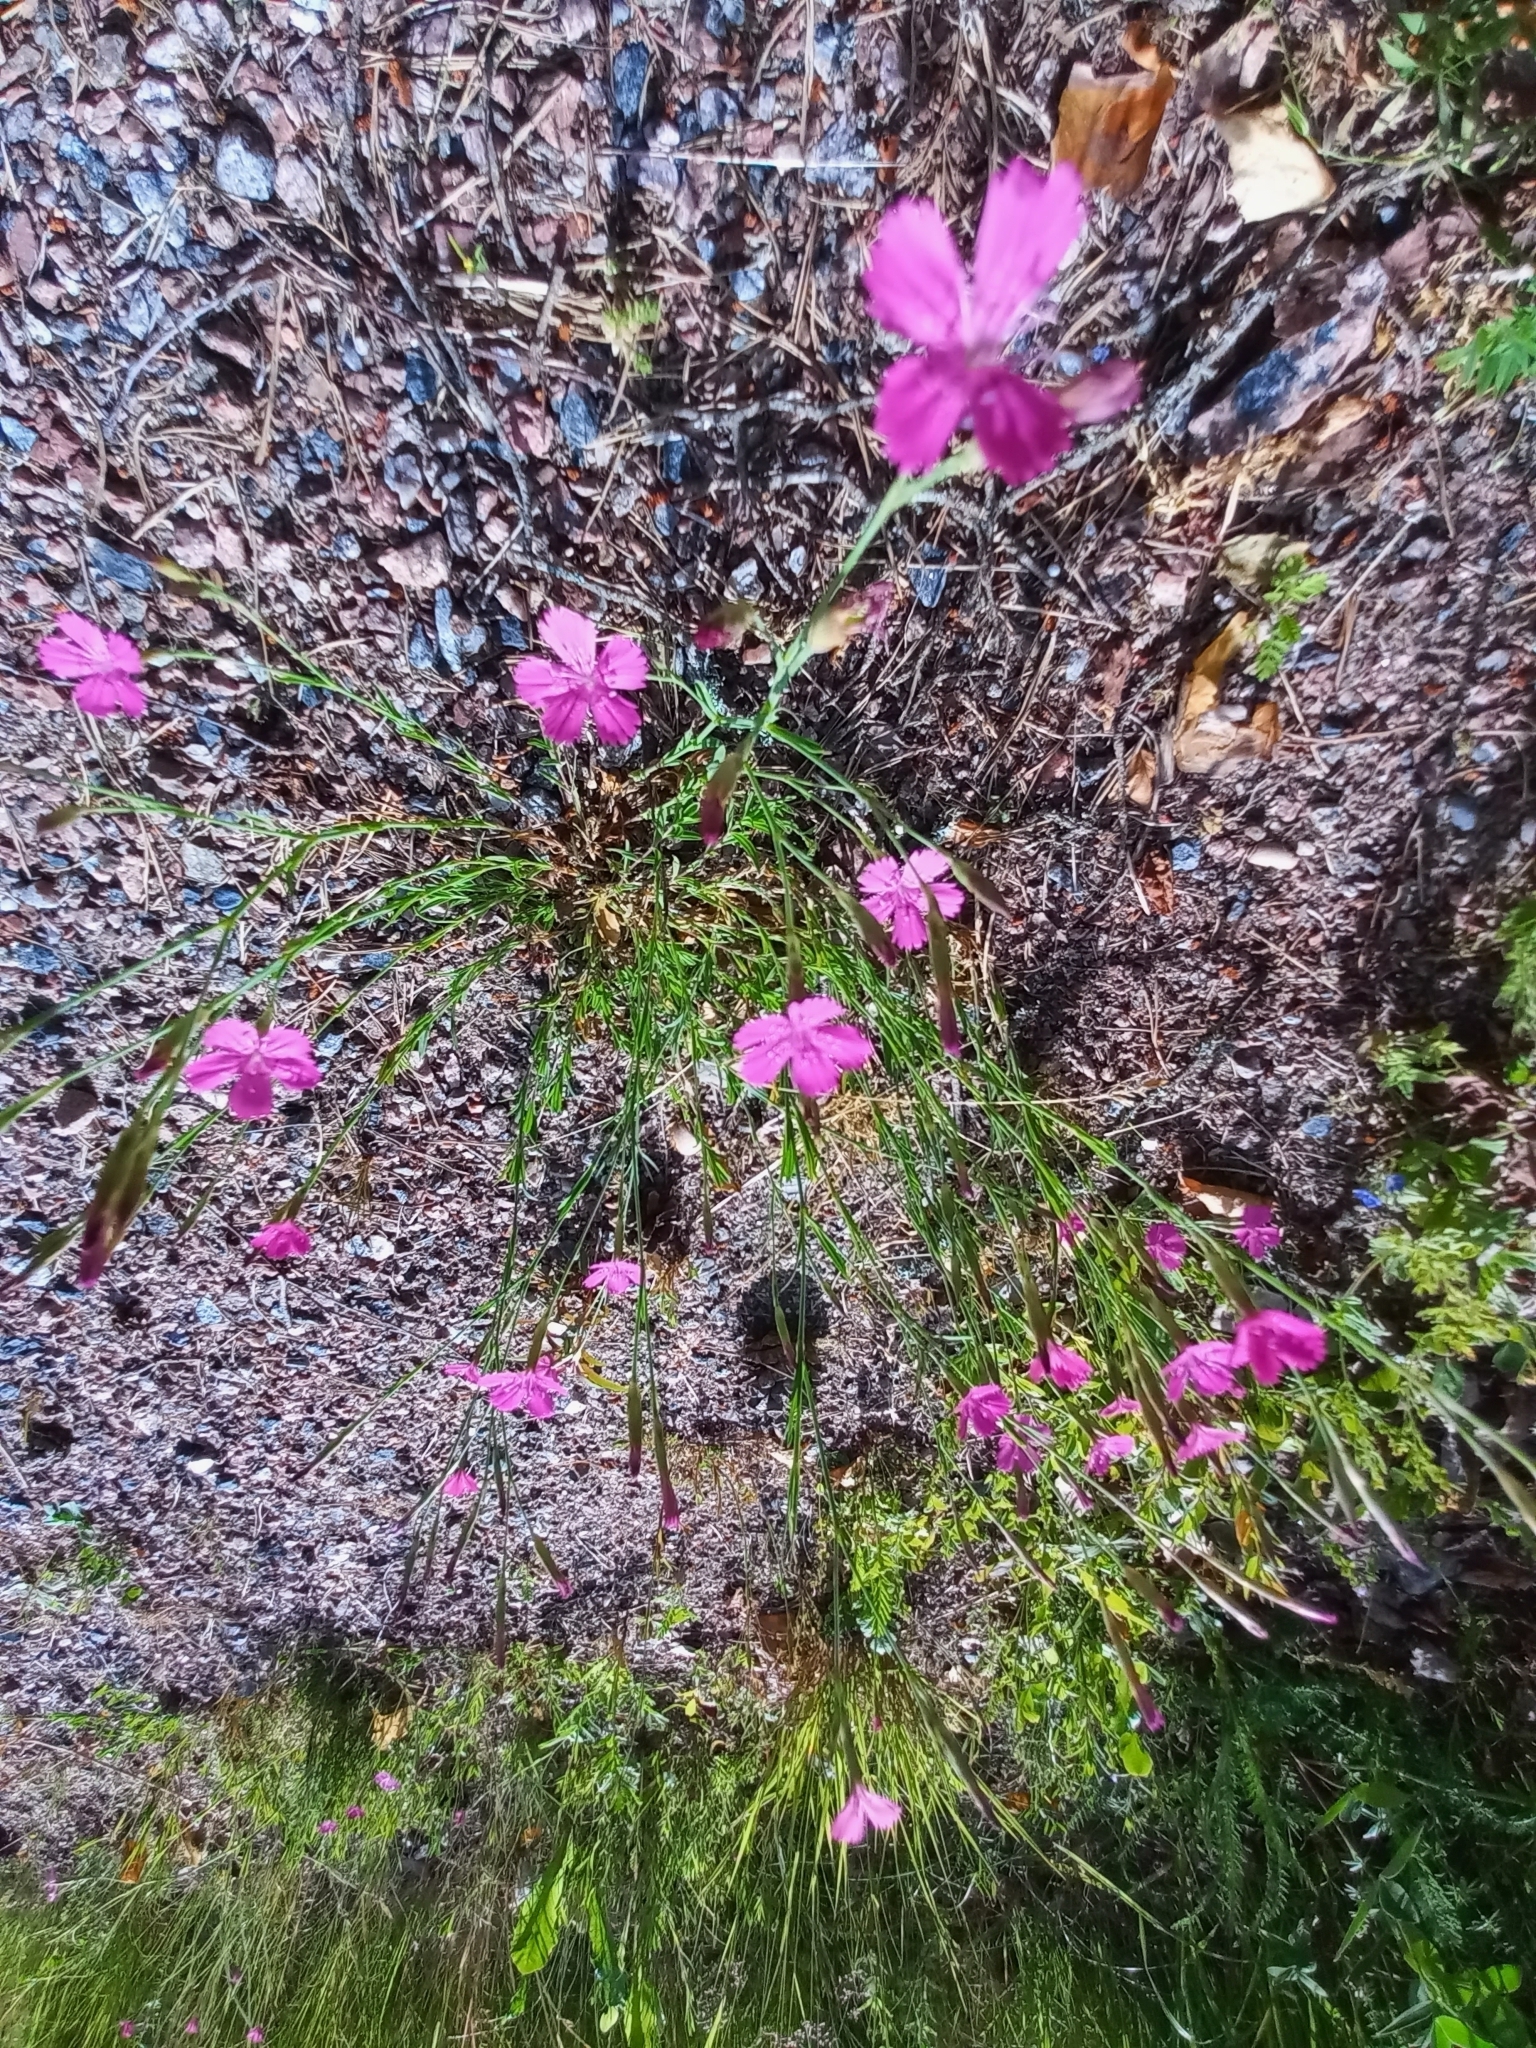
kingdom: Plantae
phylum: Tracheophyta
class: Magnoliopsida
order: Caryophyllales
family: Caryophyllaceae
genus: Dianthus
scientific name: Dianthus deltoides
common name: Maiden pink
